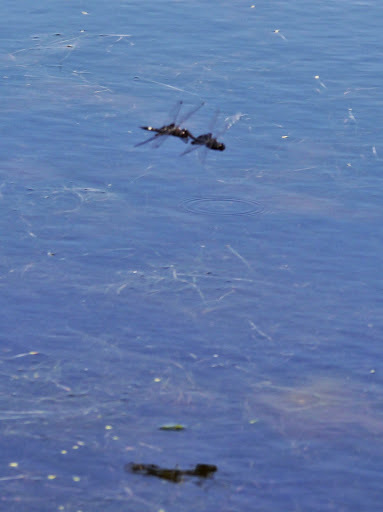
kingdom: Animalia
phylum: Arthropoda
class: Insecta
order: Odonata
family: Libellulidae
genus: Tramea
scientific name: Tramea lacerata
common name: Black saddlebags
